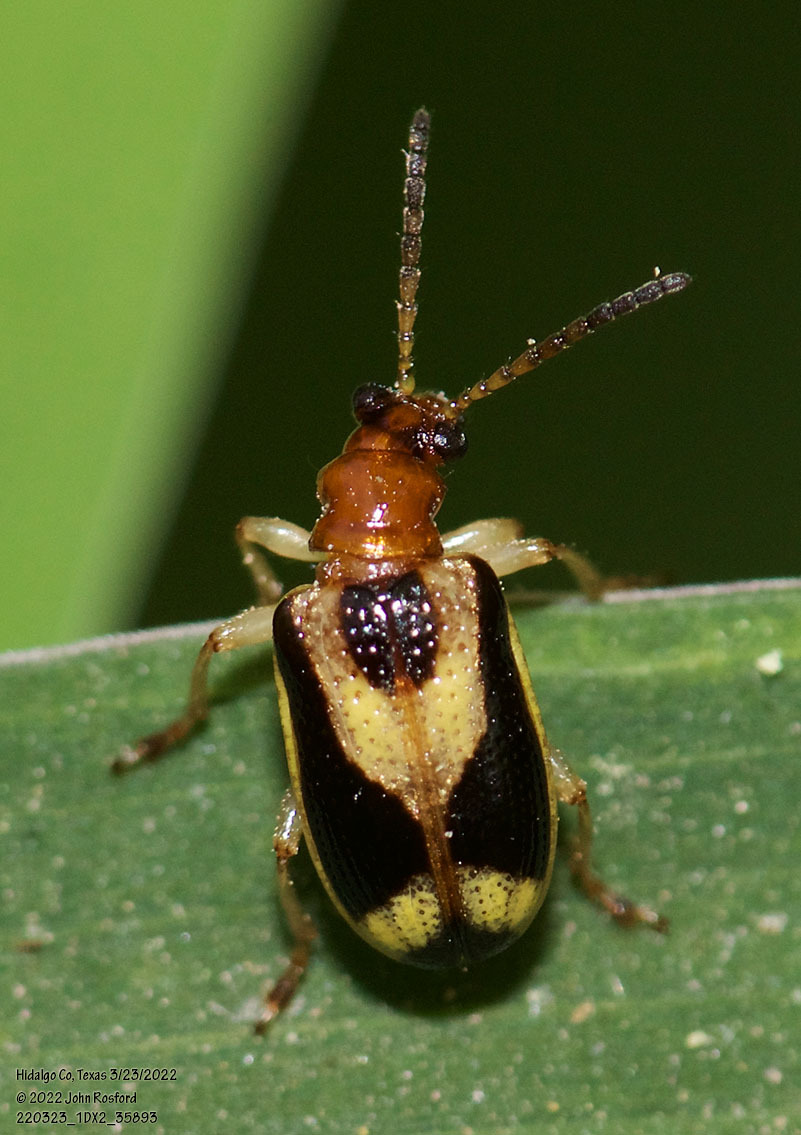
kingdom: Animalia
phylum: Arthropoda
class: Insecta
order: Coleoptera
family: Chrysomelidae
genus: Lema
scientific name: Lema opulenta
